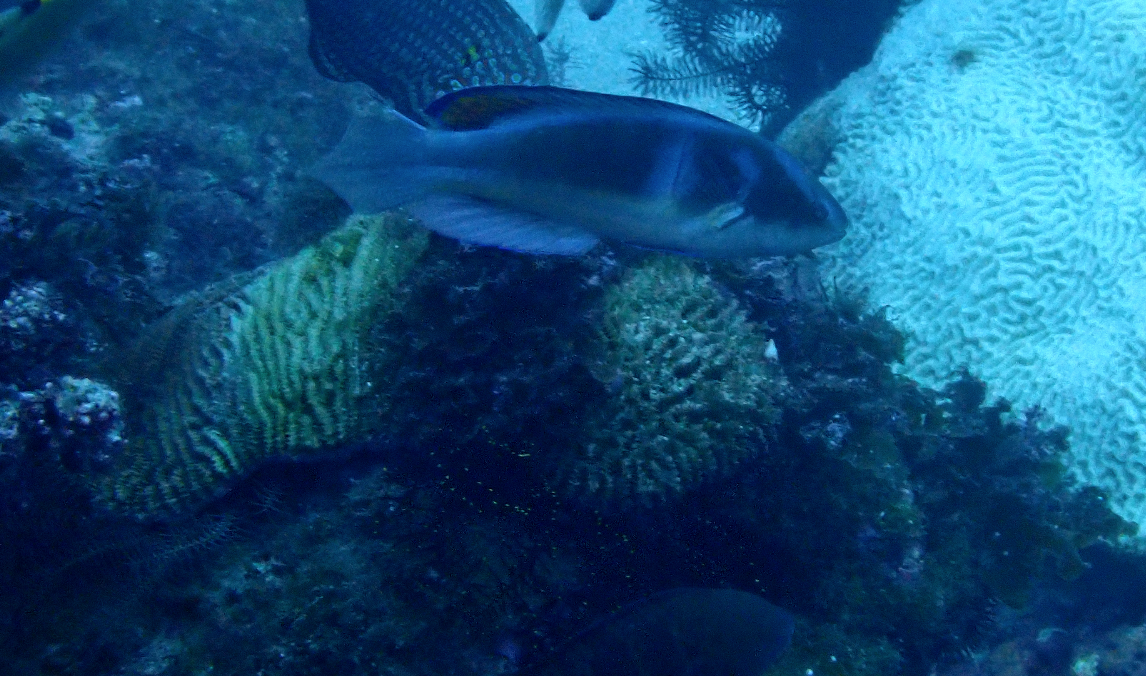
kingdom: Animalia
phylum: Chordata
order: Perciformes
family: Labridae
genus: Cirrhilabrus
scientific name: Cirrhilabrus melanomarginatus
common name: Blackfin fairy-warsse
